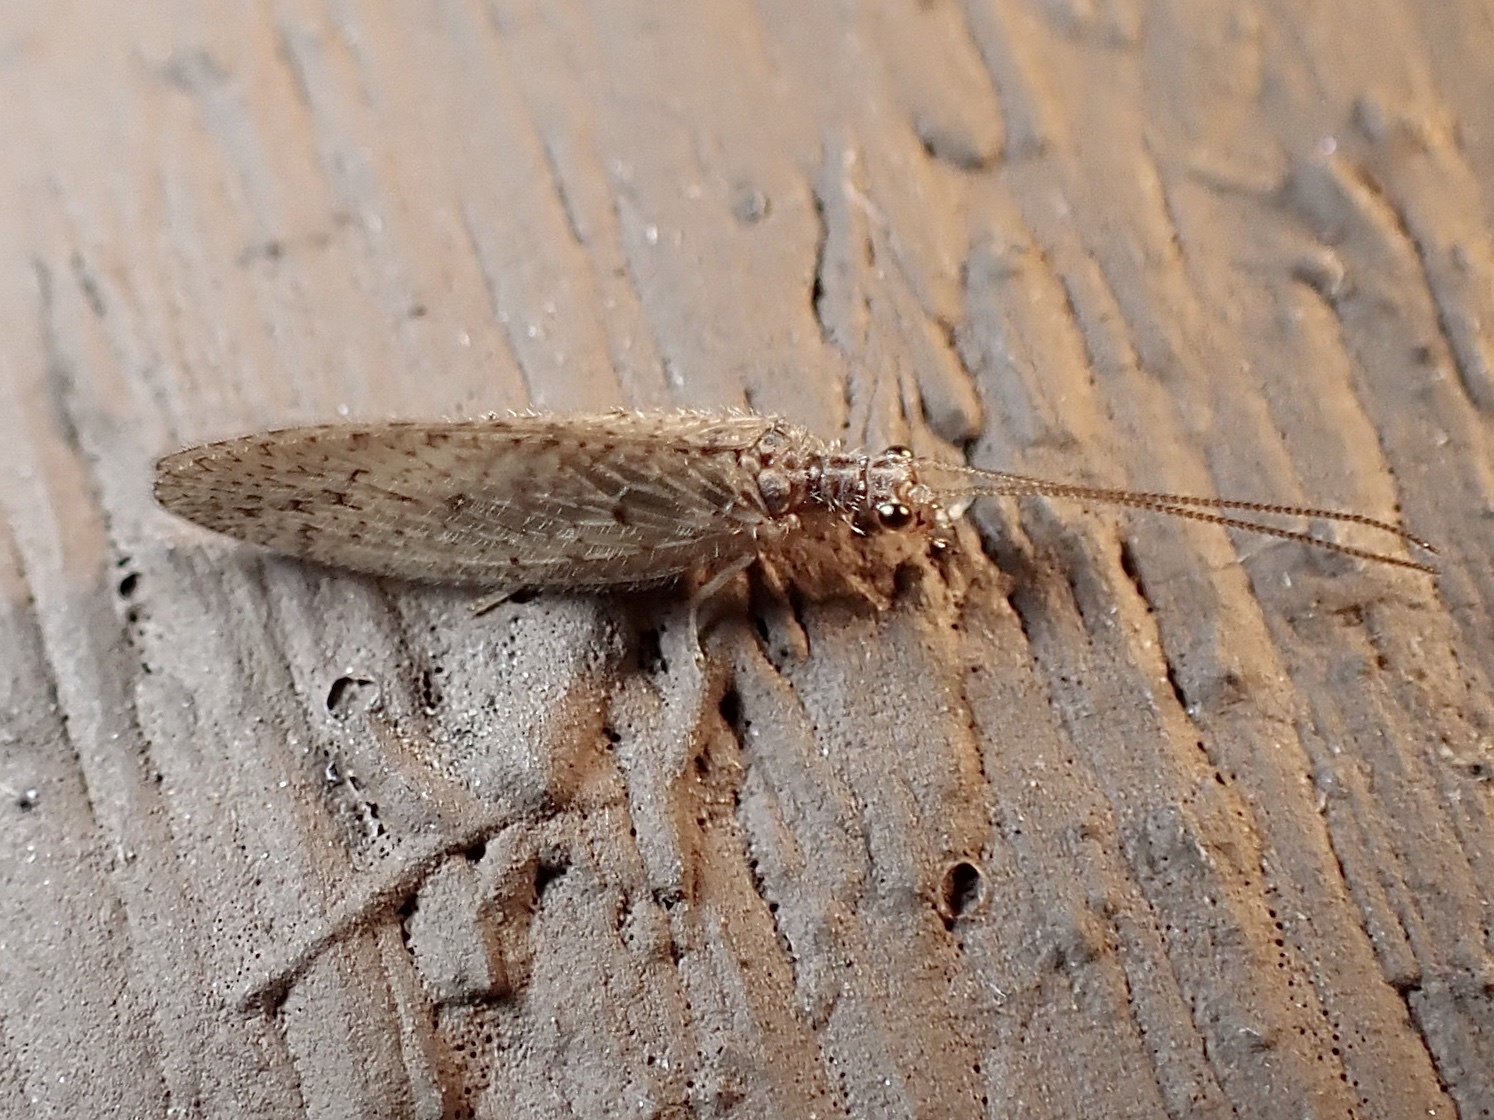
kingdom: Animalia
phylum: Arthropoda
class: Insecta
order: Neuroptera
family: Hemerobiidae
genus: Micromus
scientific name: Micromus subanticus
